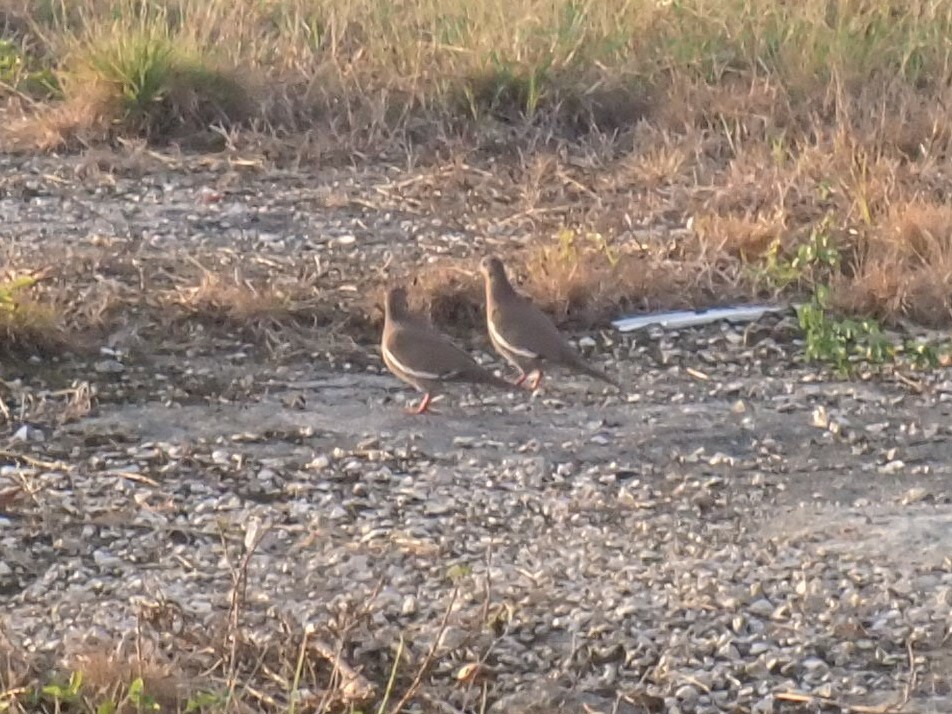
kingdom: Animalia
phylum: Chordata
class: Aves
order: Columbiformes
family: Columbidae
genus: Zenaida
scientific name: Zenaida asiatica
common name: White-winged dove
